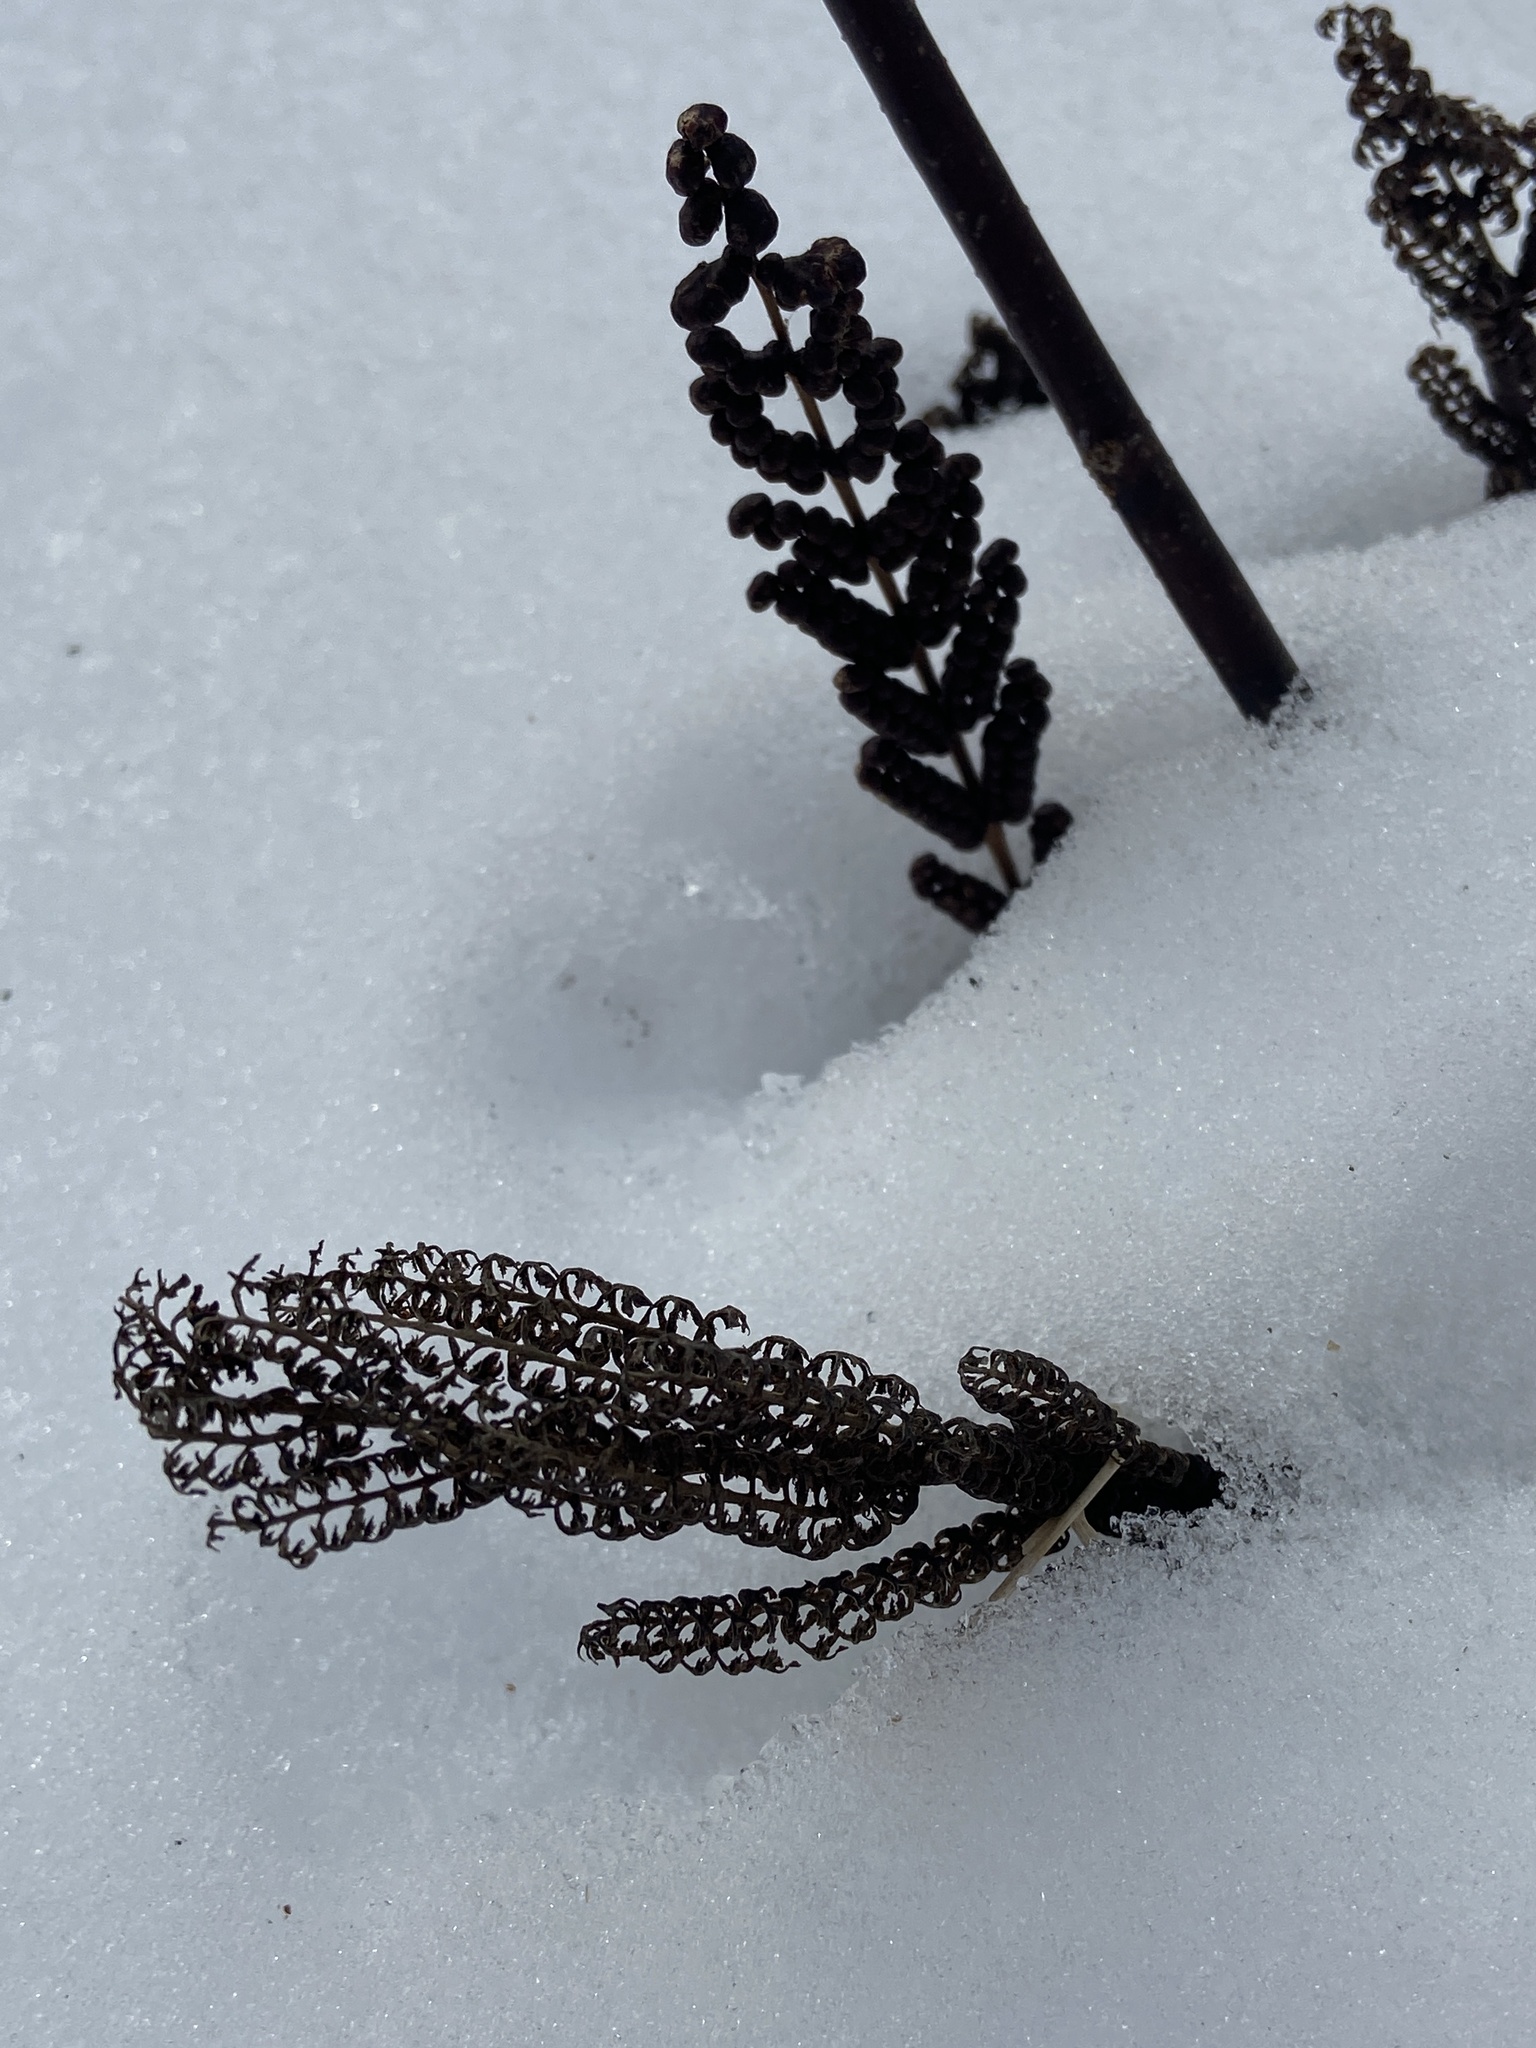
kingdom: Plantae
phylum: Tracheophyta
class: Polypodiopsida
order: Polypodiales
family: Onocleaceae
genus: Onoclea
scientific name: Onoclea sensibilis
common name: Sensitive fern
